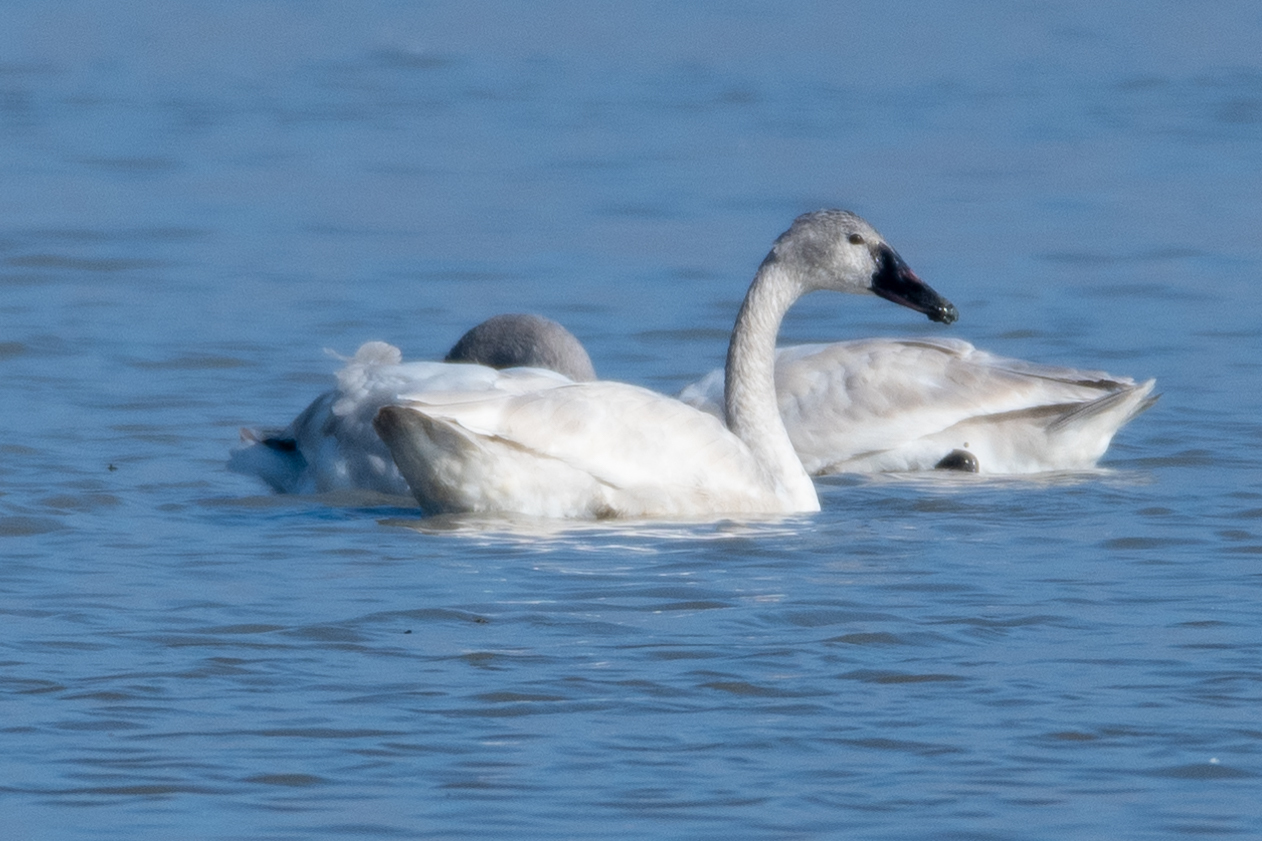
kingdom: Animalia
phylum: Chordata
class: Aves
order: Anseriformes
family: Anatidae
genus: Cygnus
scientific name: Cygnus columbianus
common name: Tundra swan
